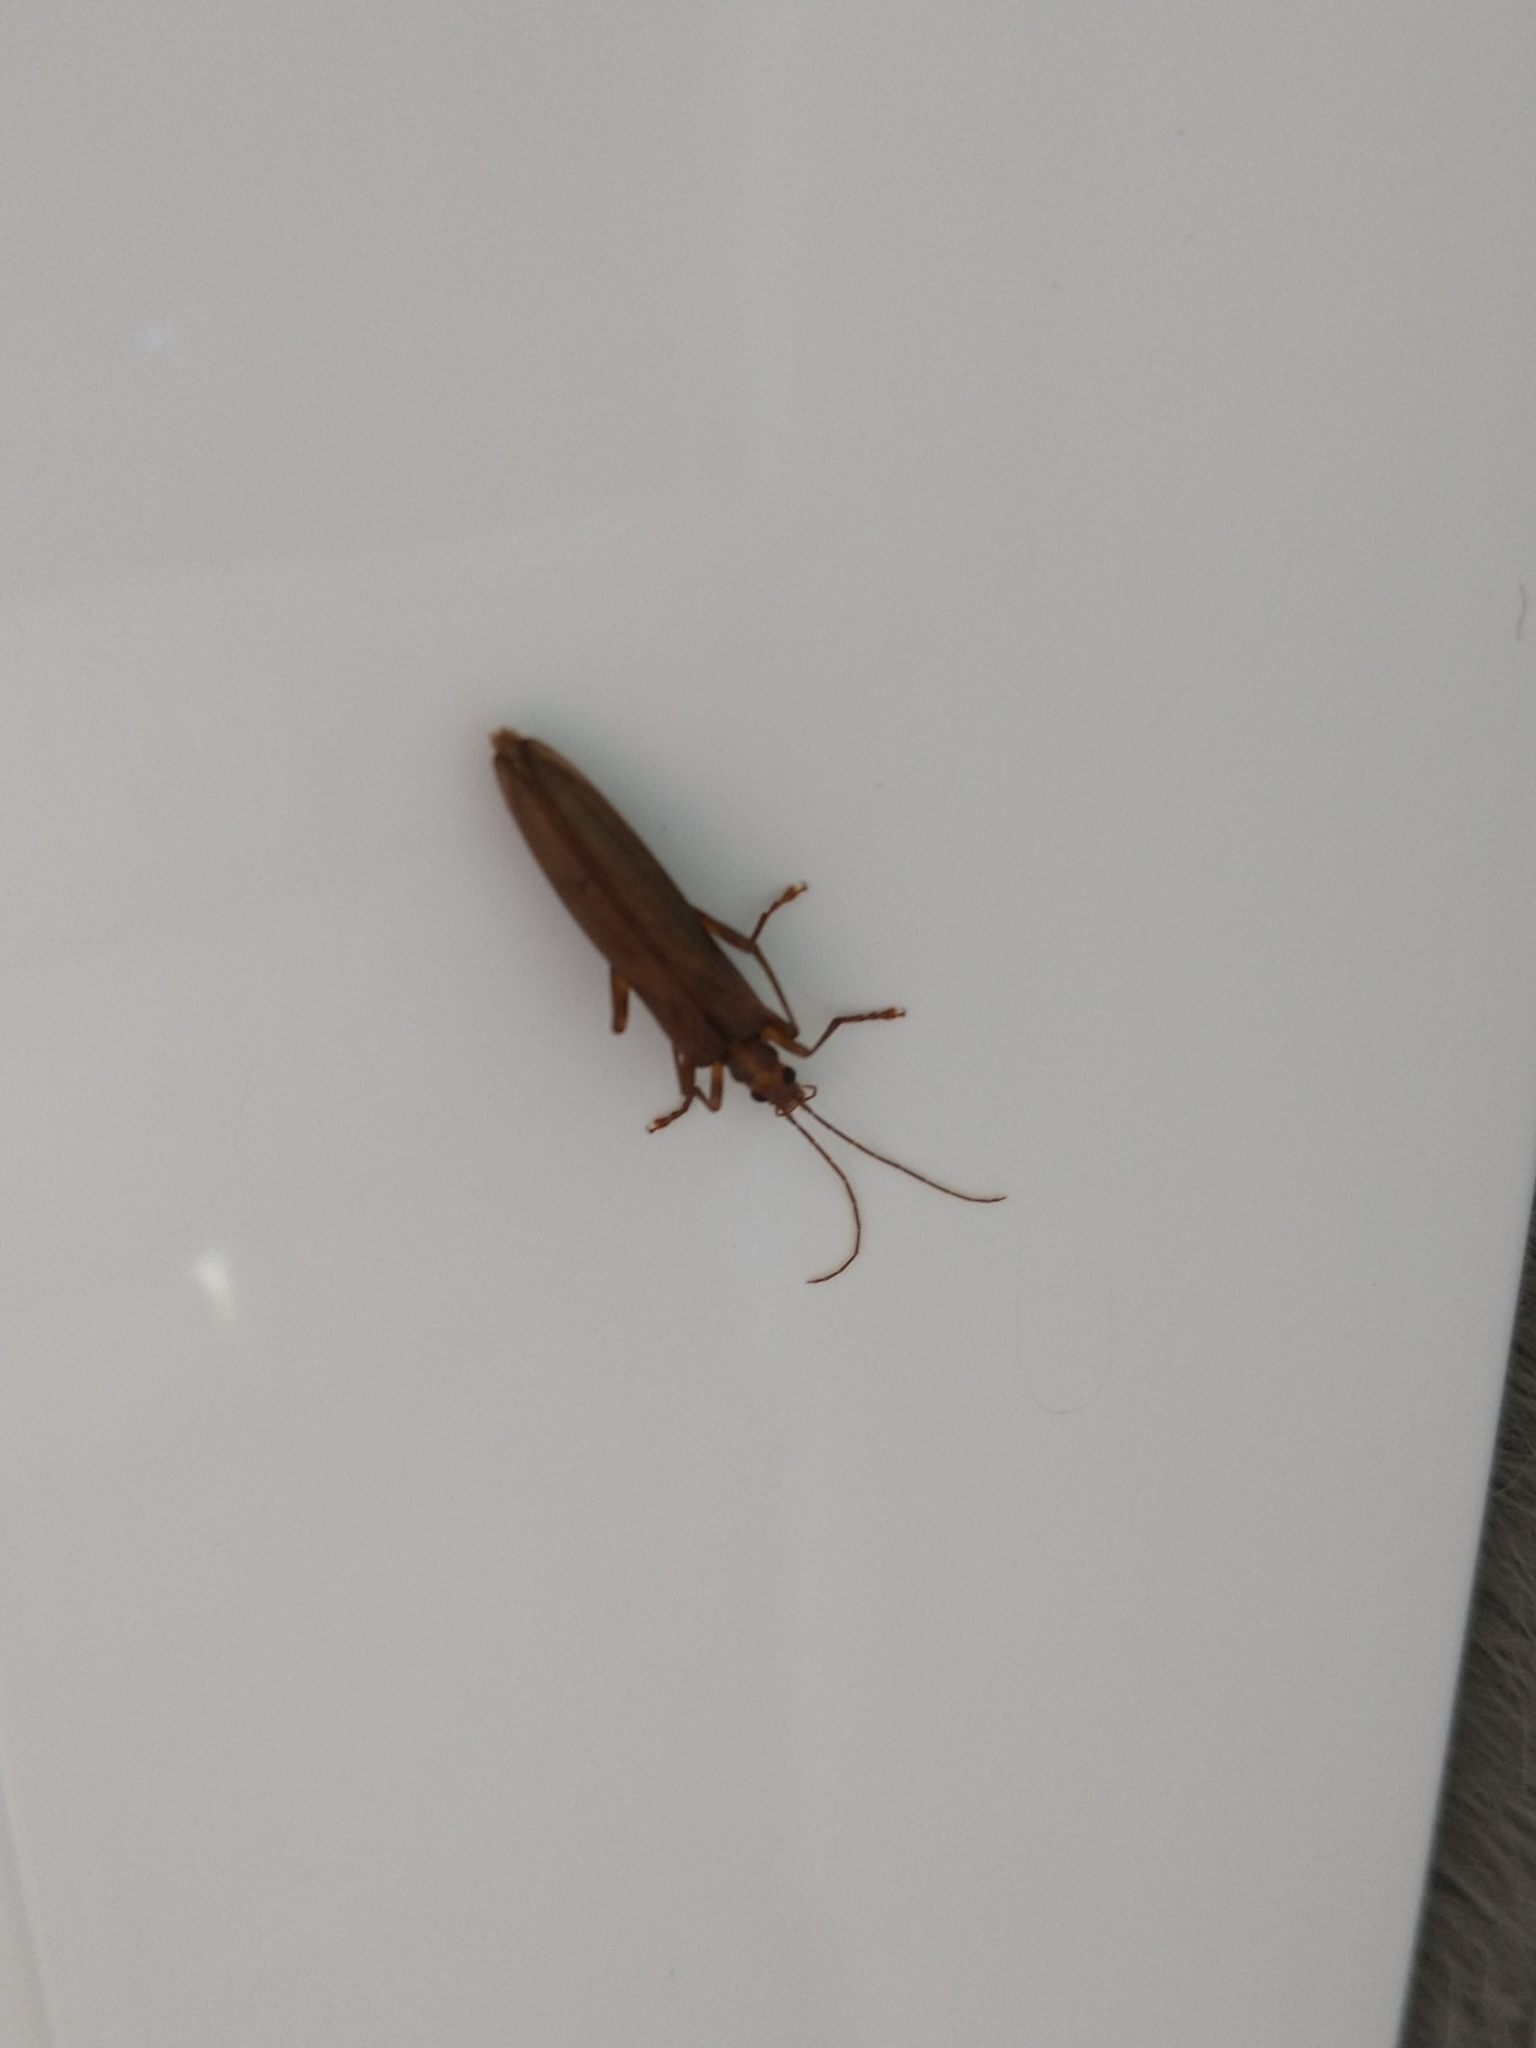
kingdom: Animalia
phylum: Arthropoda
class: Insecta
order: Coleoptera
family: Oedemeridae
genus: Oedemera
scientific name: Oedemera femoralis
